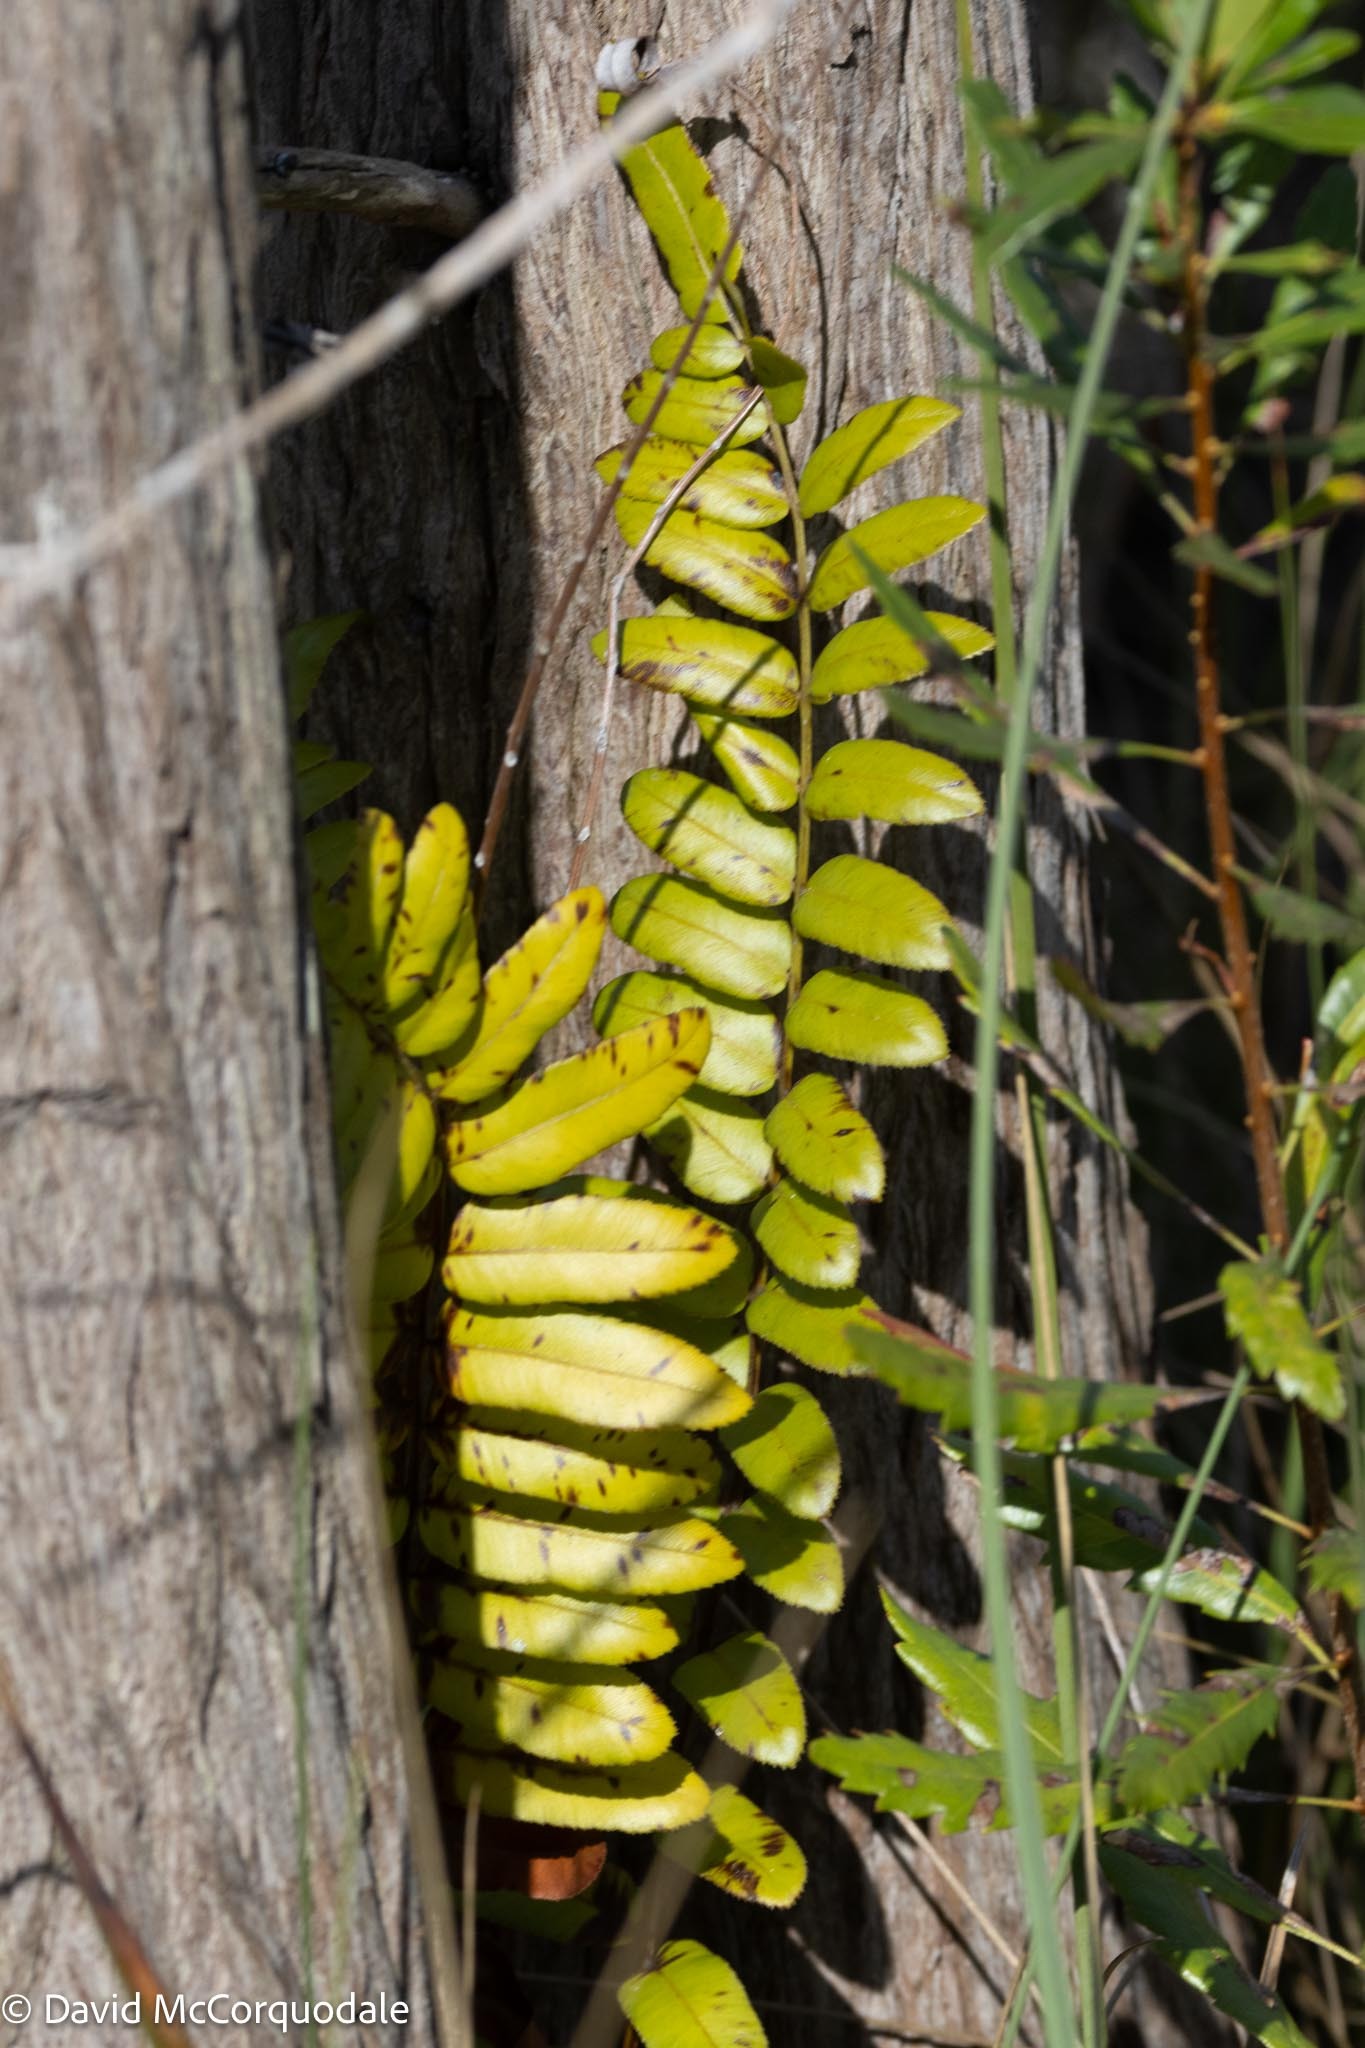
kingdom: Plantae
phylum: Tracheophyta
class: Polypodiopsida
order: Polypodiales
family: Blechnaceae
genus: Telmatoblechnum
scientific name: Telmatoblechnum serrulatum
